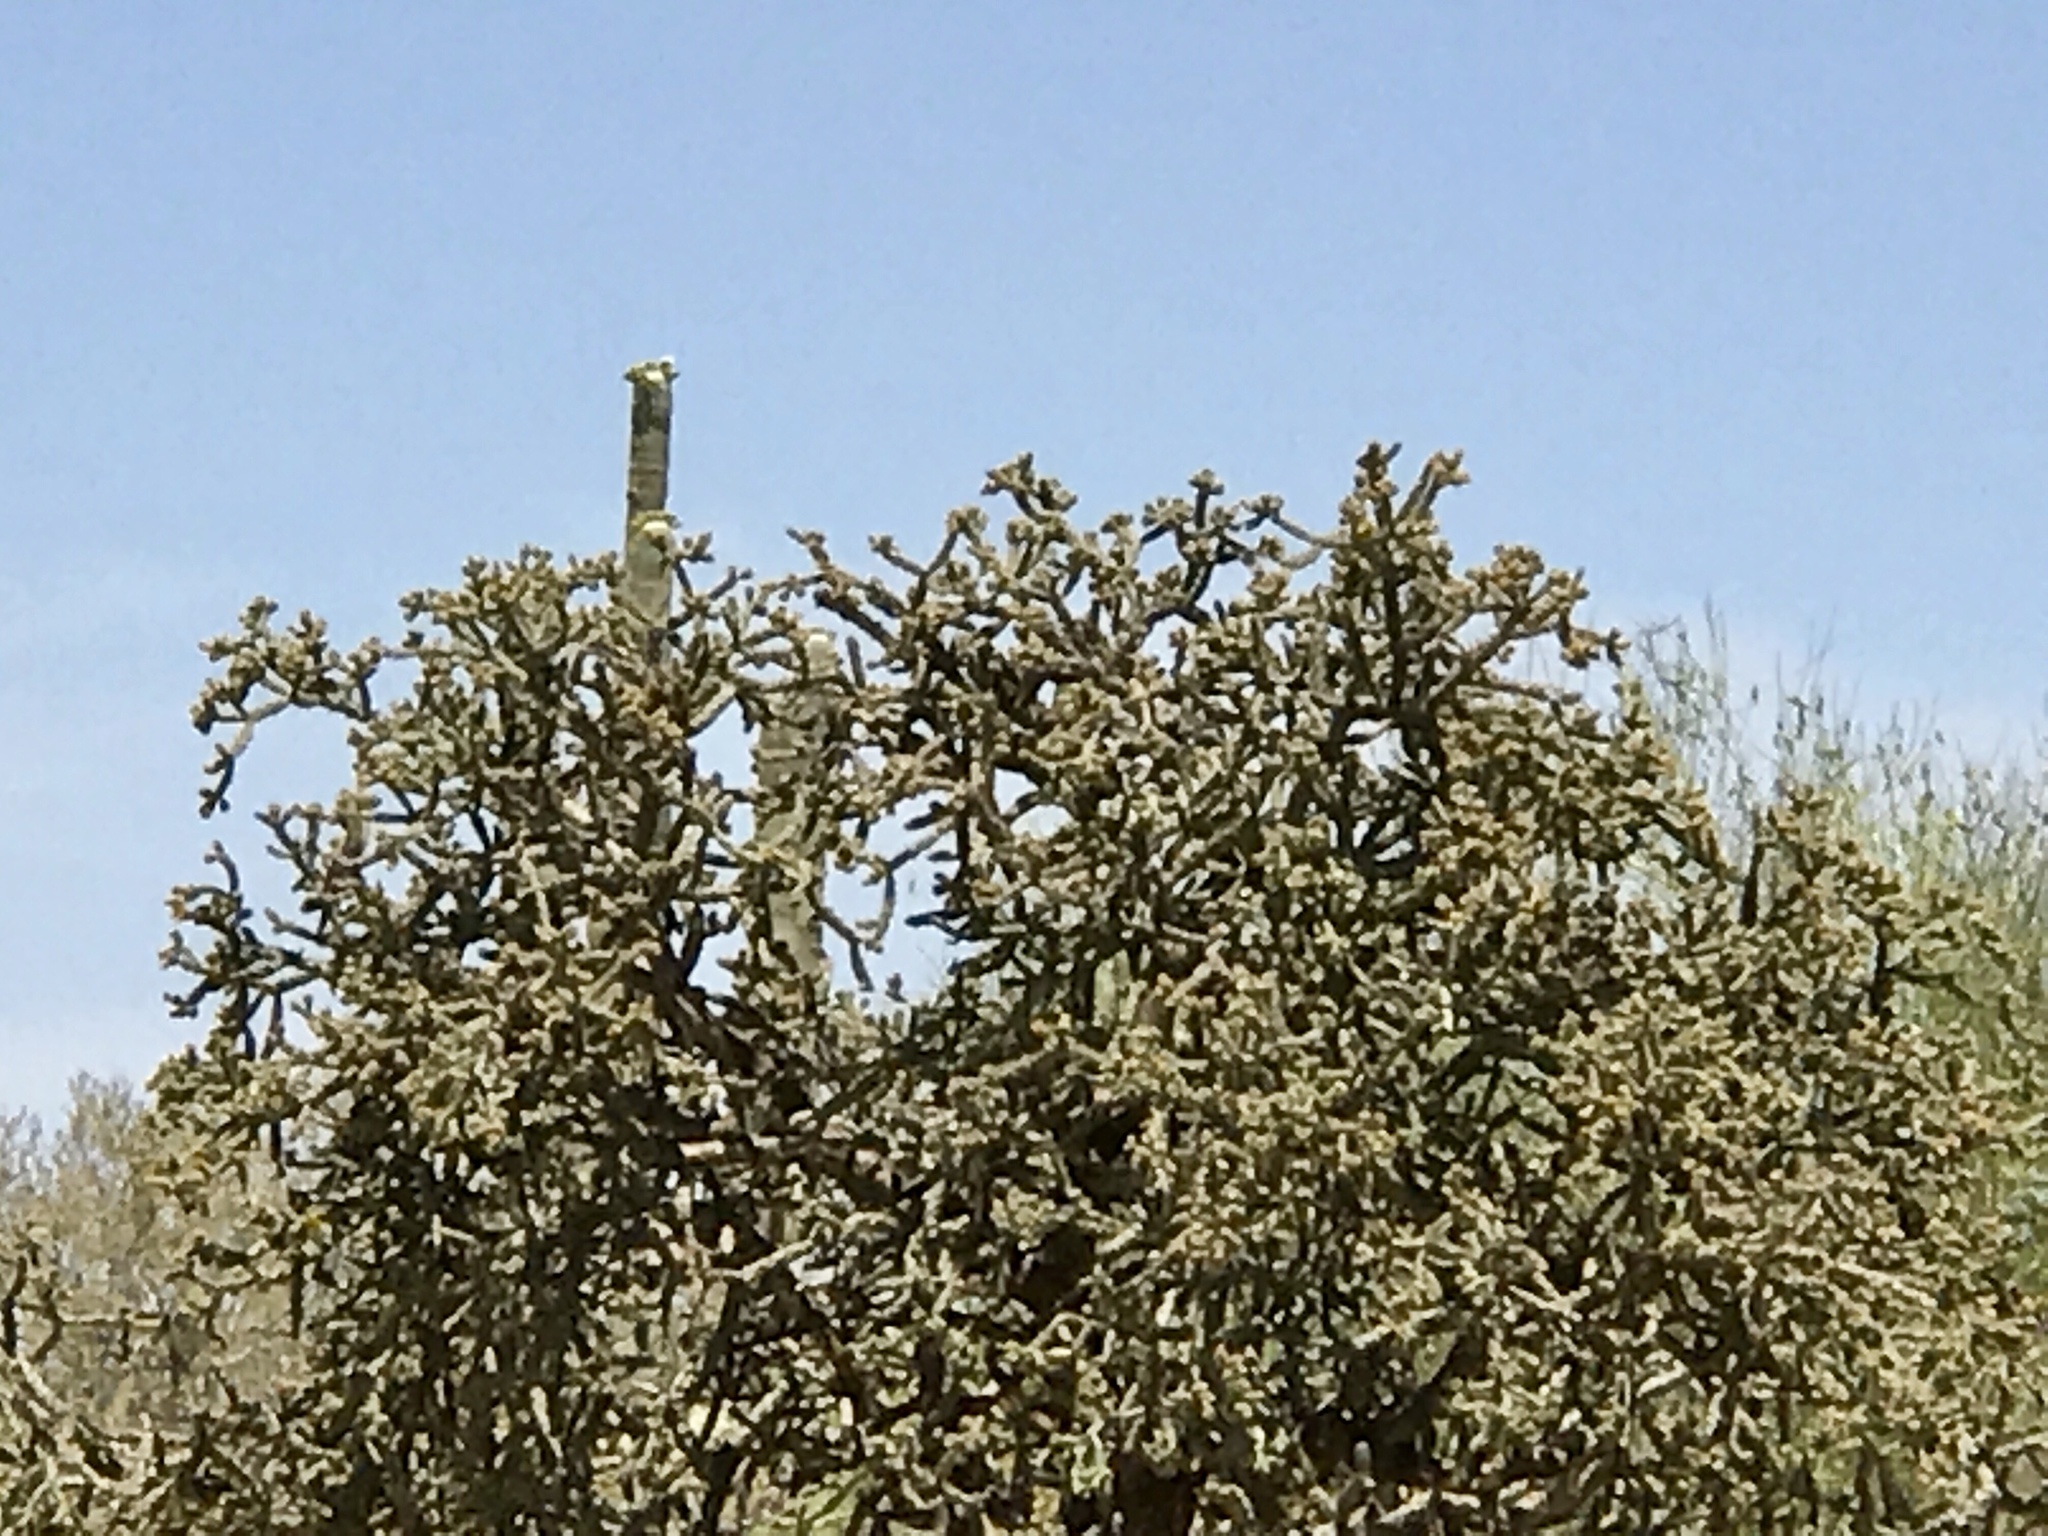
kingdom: Plantae
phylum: Tracheophyta
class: Magnoliopsida
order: Caryophyllales
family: Cactaceae
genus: Cylindropuntia
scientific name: Cylindropuntia arbuscula
